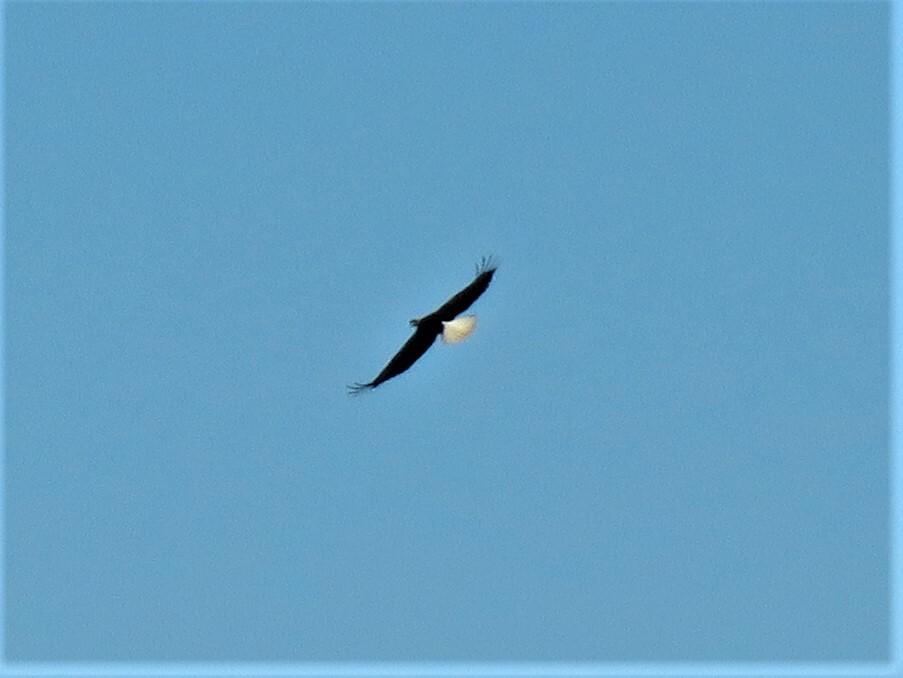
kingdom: Animalia
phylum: Chordata
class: Aves
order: Accipitriformes
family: Accipitridae
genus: Haliaeetus
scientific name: Haliaeetus leucocephalus
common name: Bald eagle
